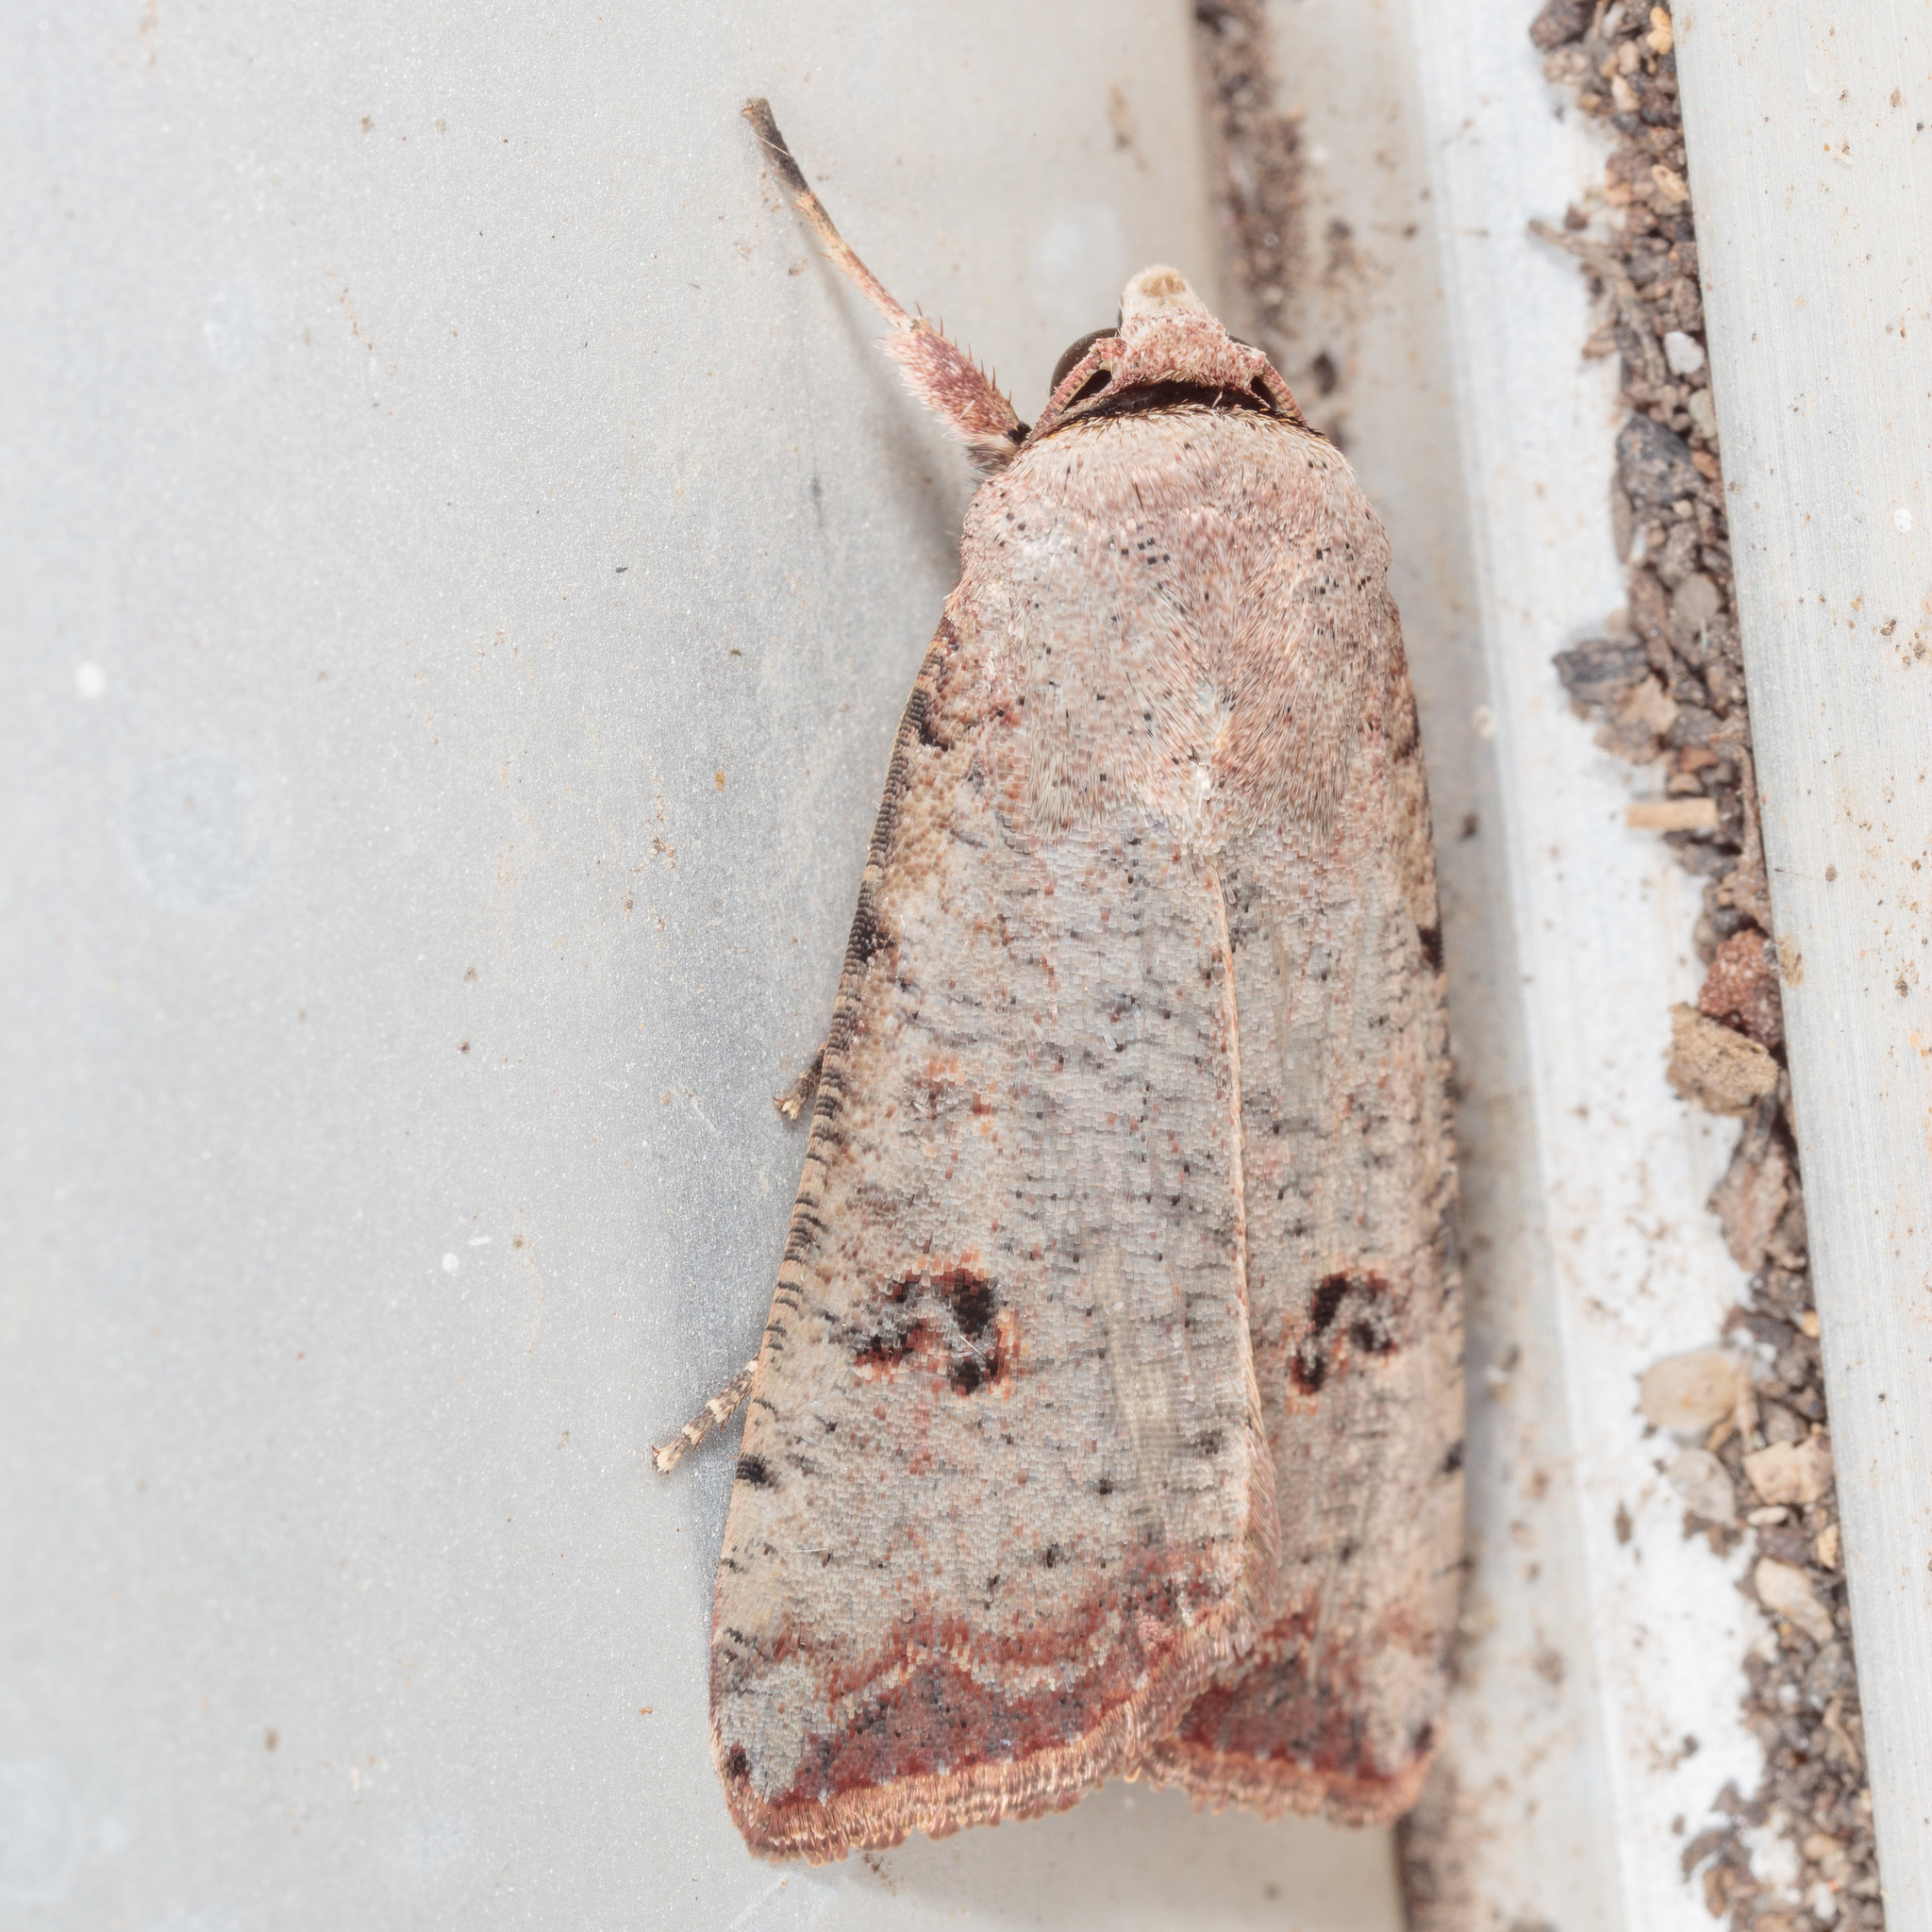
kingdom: Animalia
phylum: Arthropoda
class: Insecta
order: Lepidoptera
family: Noctuidae
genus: Anicla
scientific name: Anicla infecta
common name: Green cutworm
